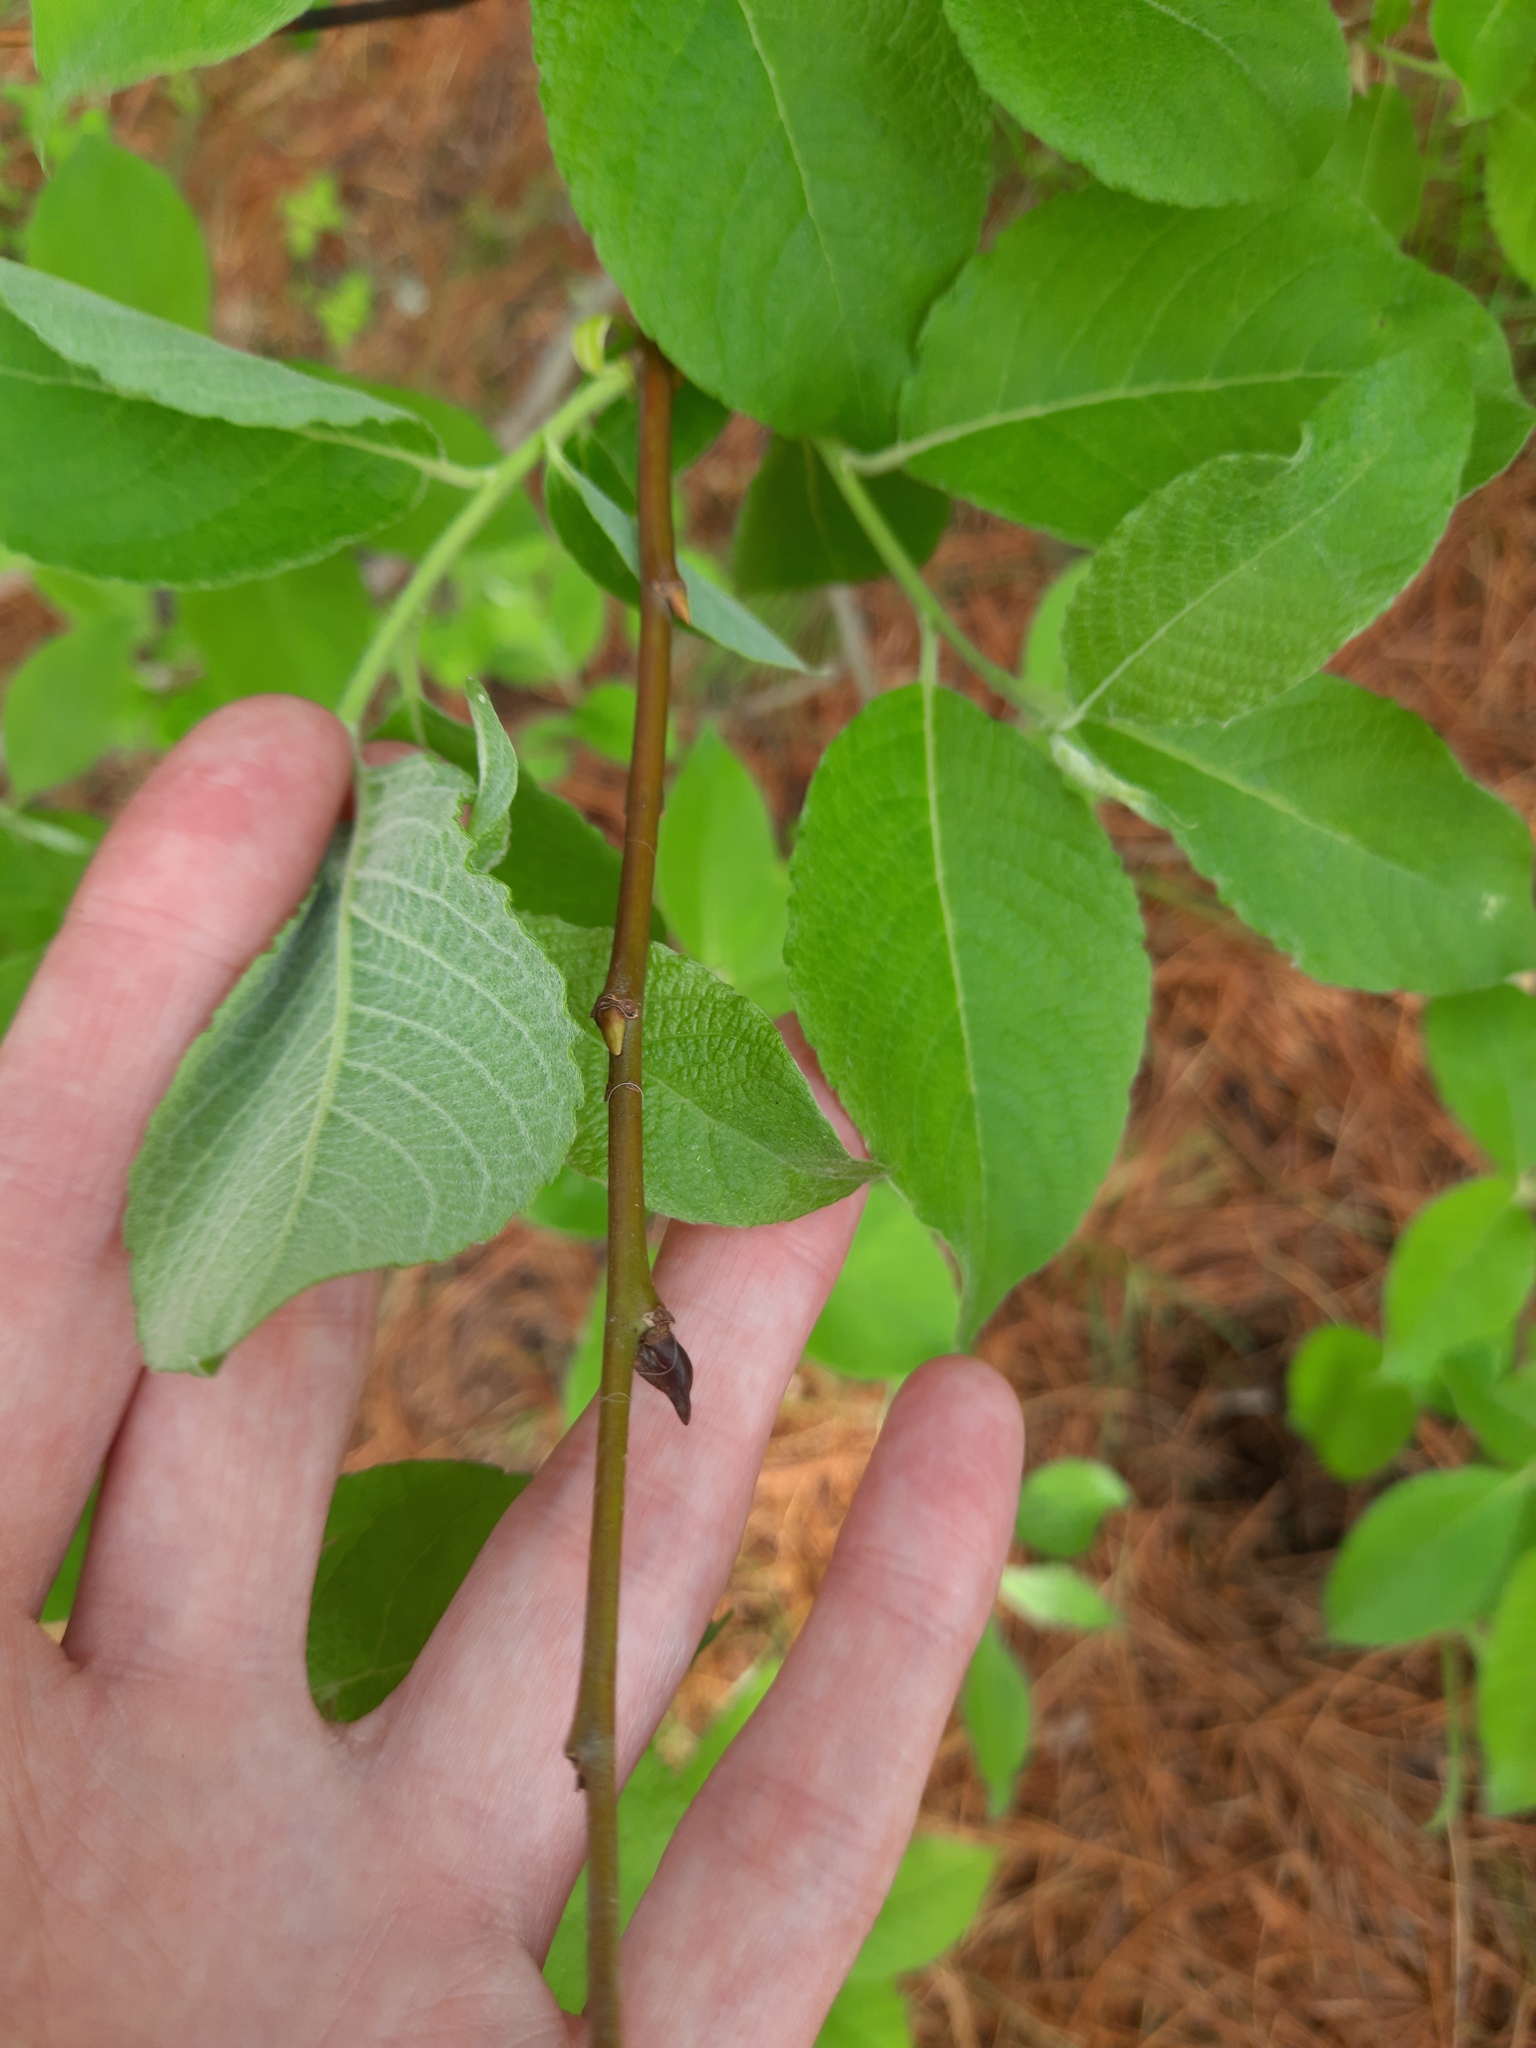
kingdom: Plantae
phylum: Tracheophyta
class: Magnoliopsida
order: Malpighiales
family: Salicaceae
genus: Salix
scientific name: Salix caprea
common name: Goat willow
